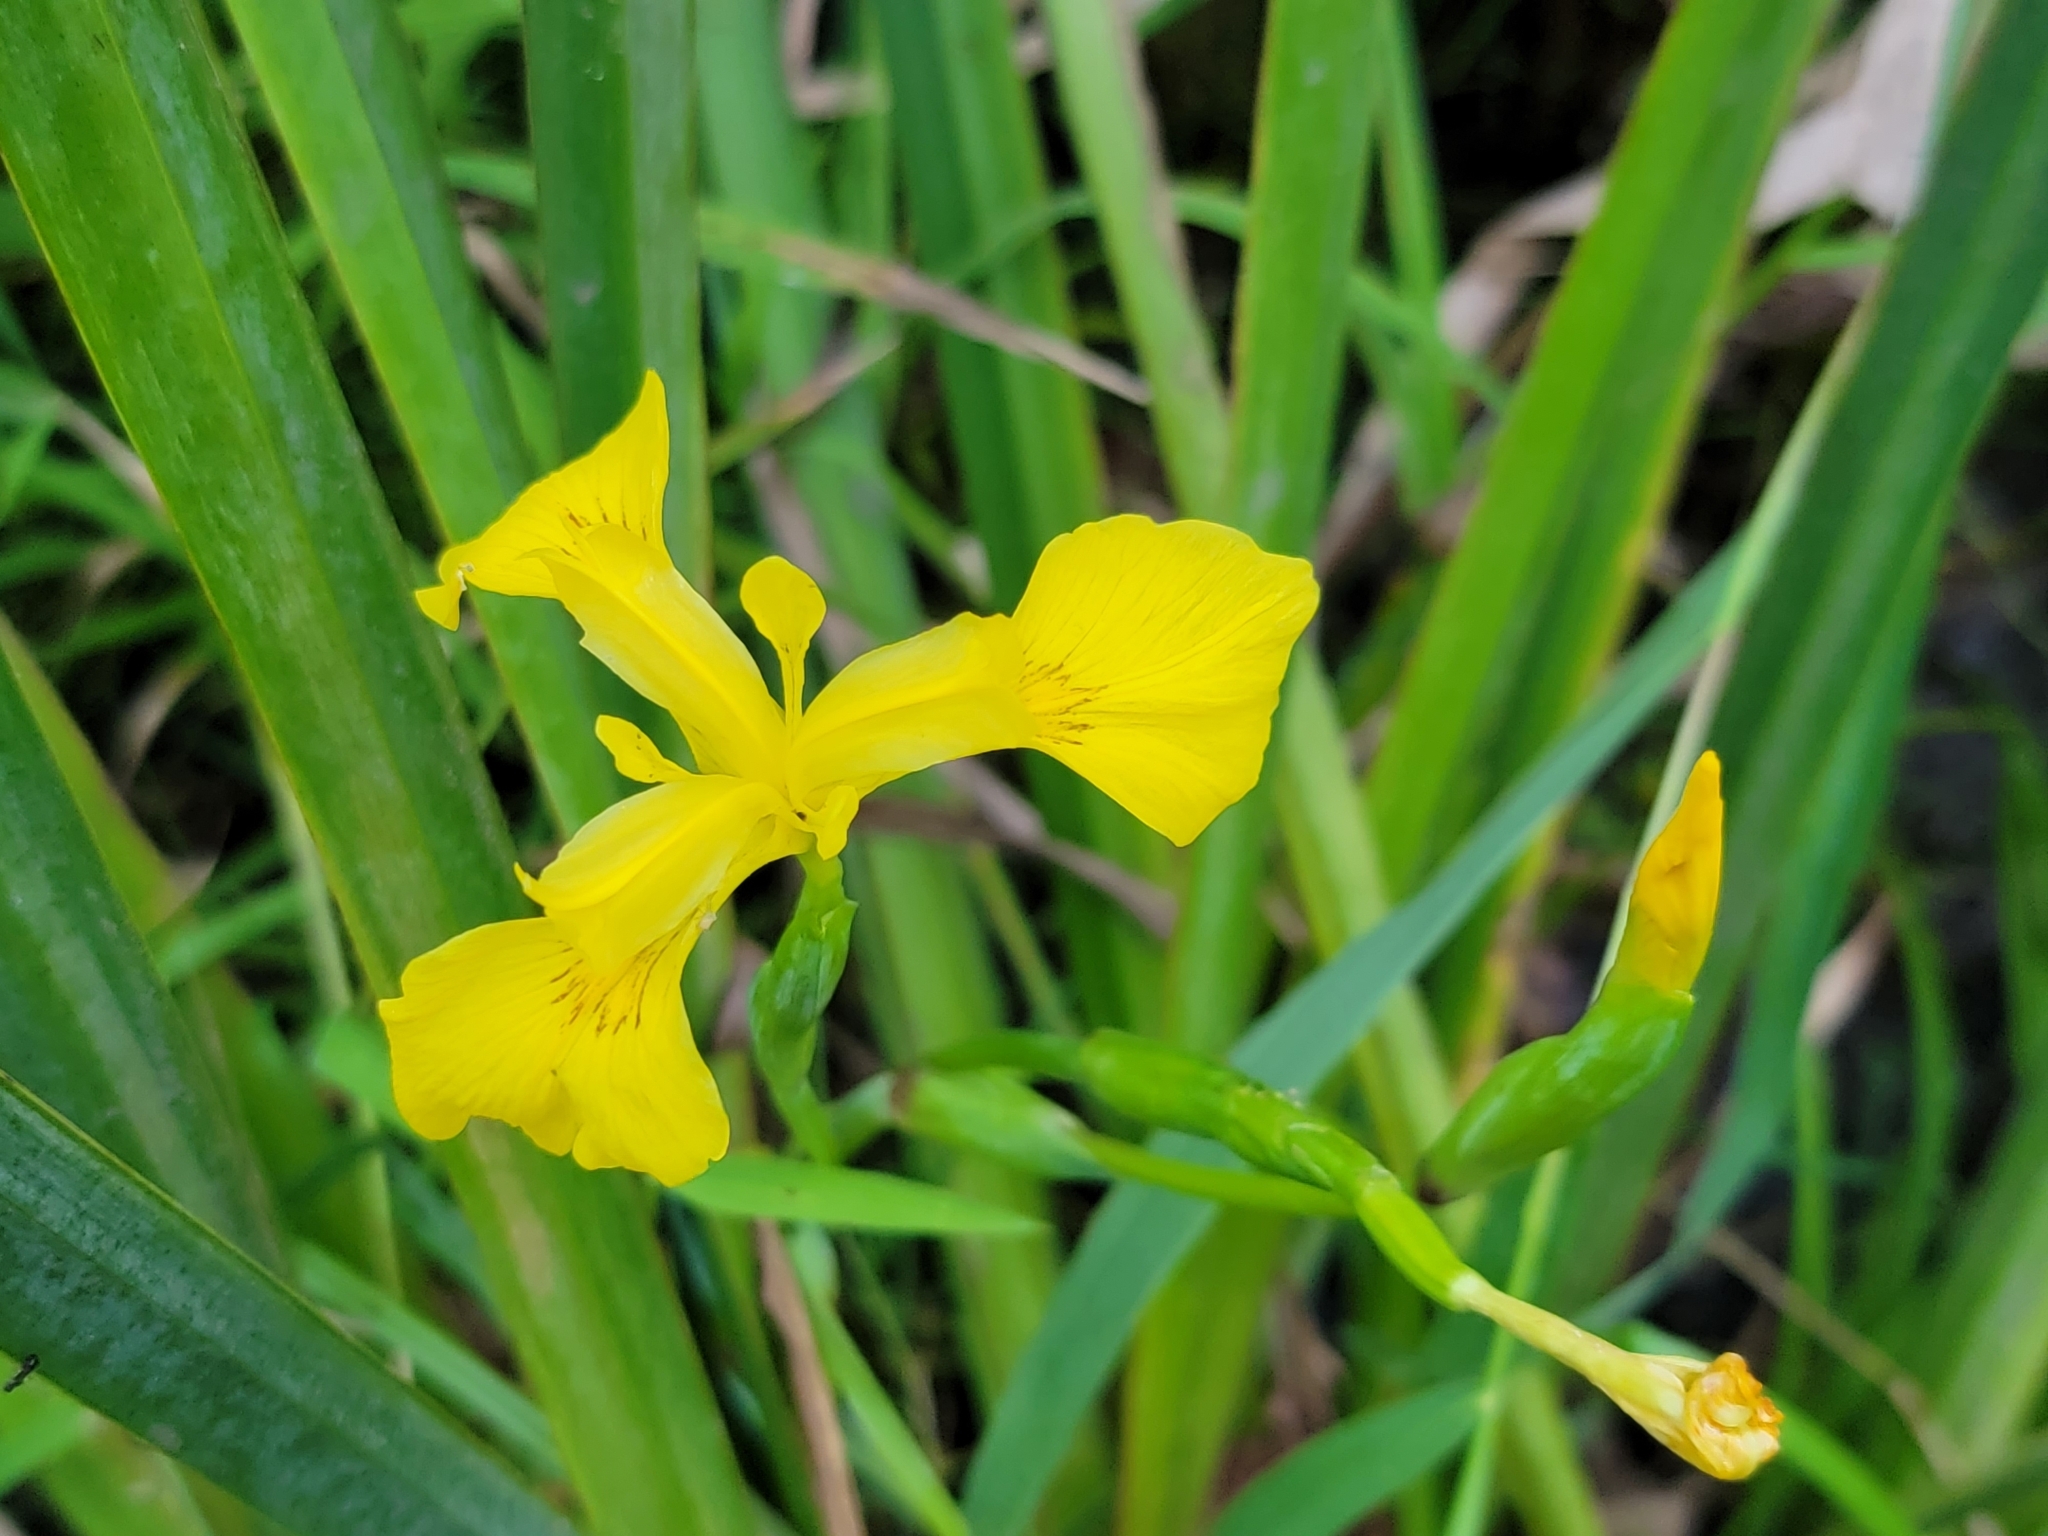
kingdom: Plantae
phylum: Tracheophyta
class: Liliopsida
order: Asparagales
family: Iridaceae
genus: Iris
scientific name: Iris pseudacorus
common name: Yellow flag
